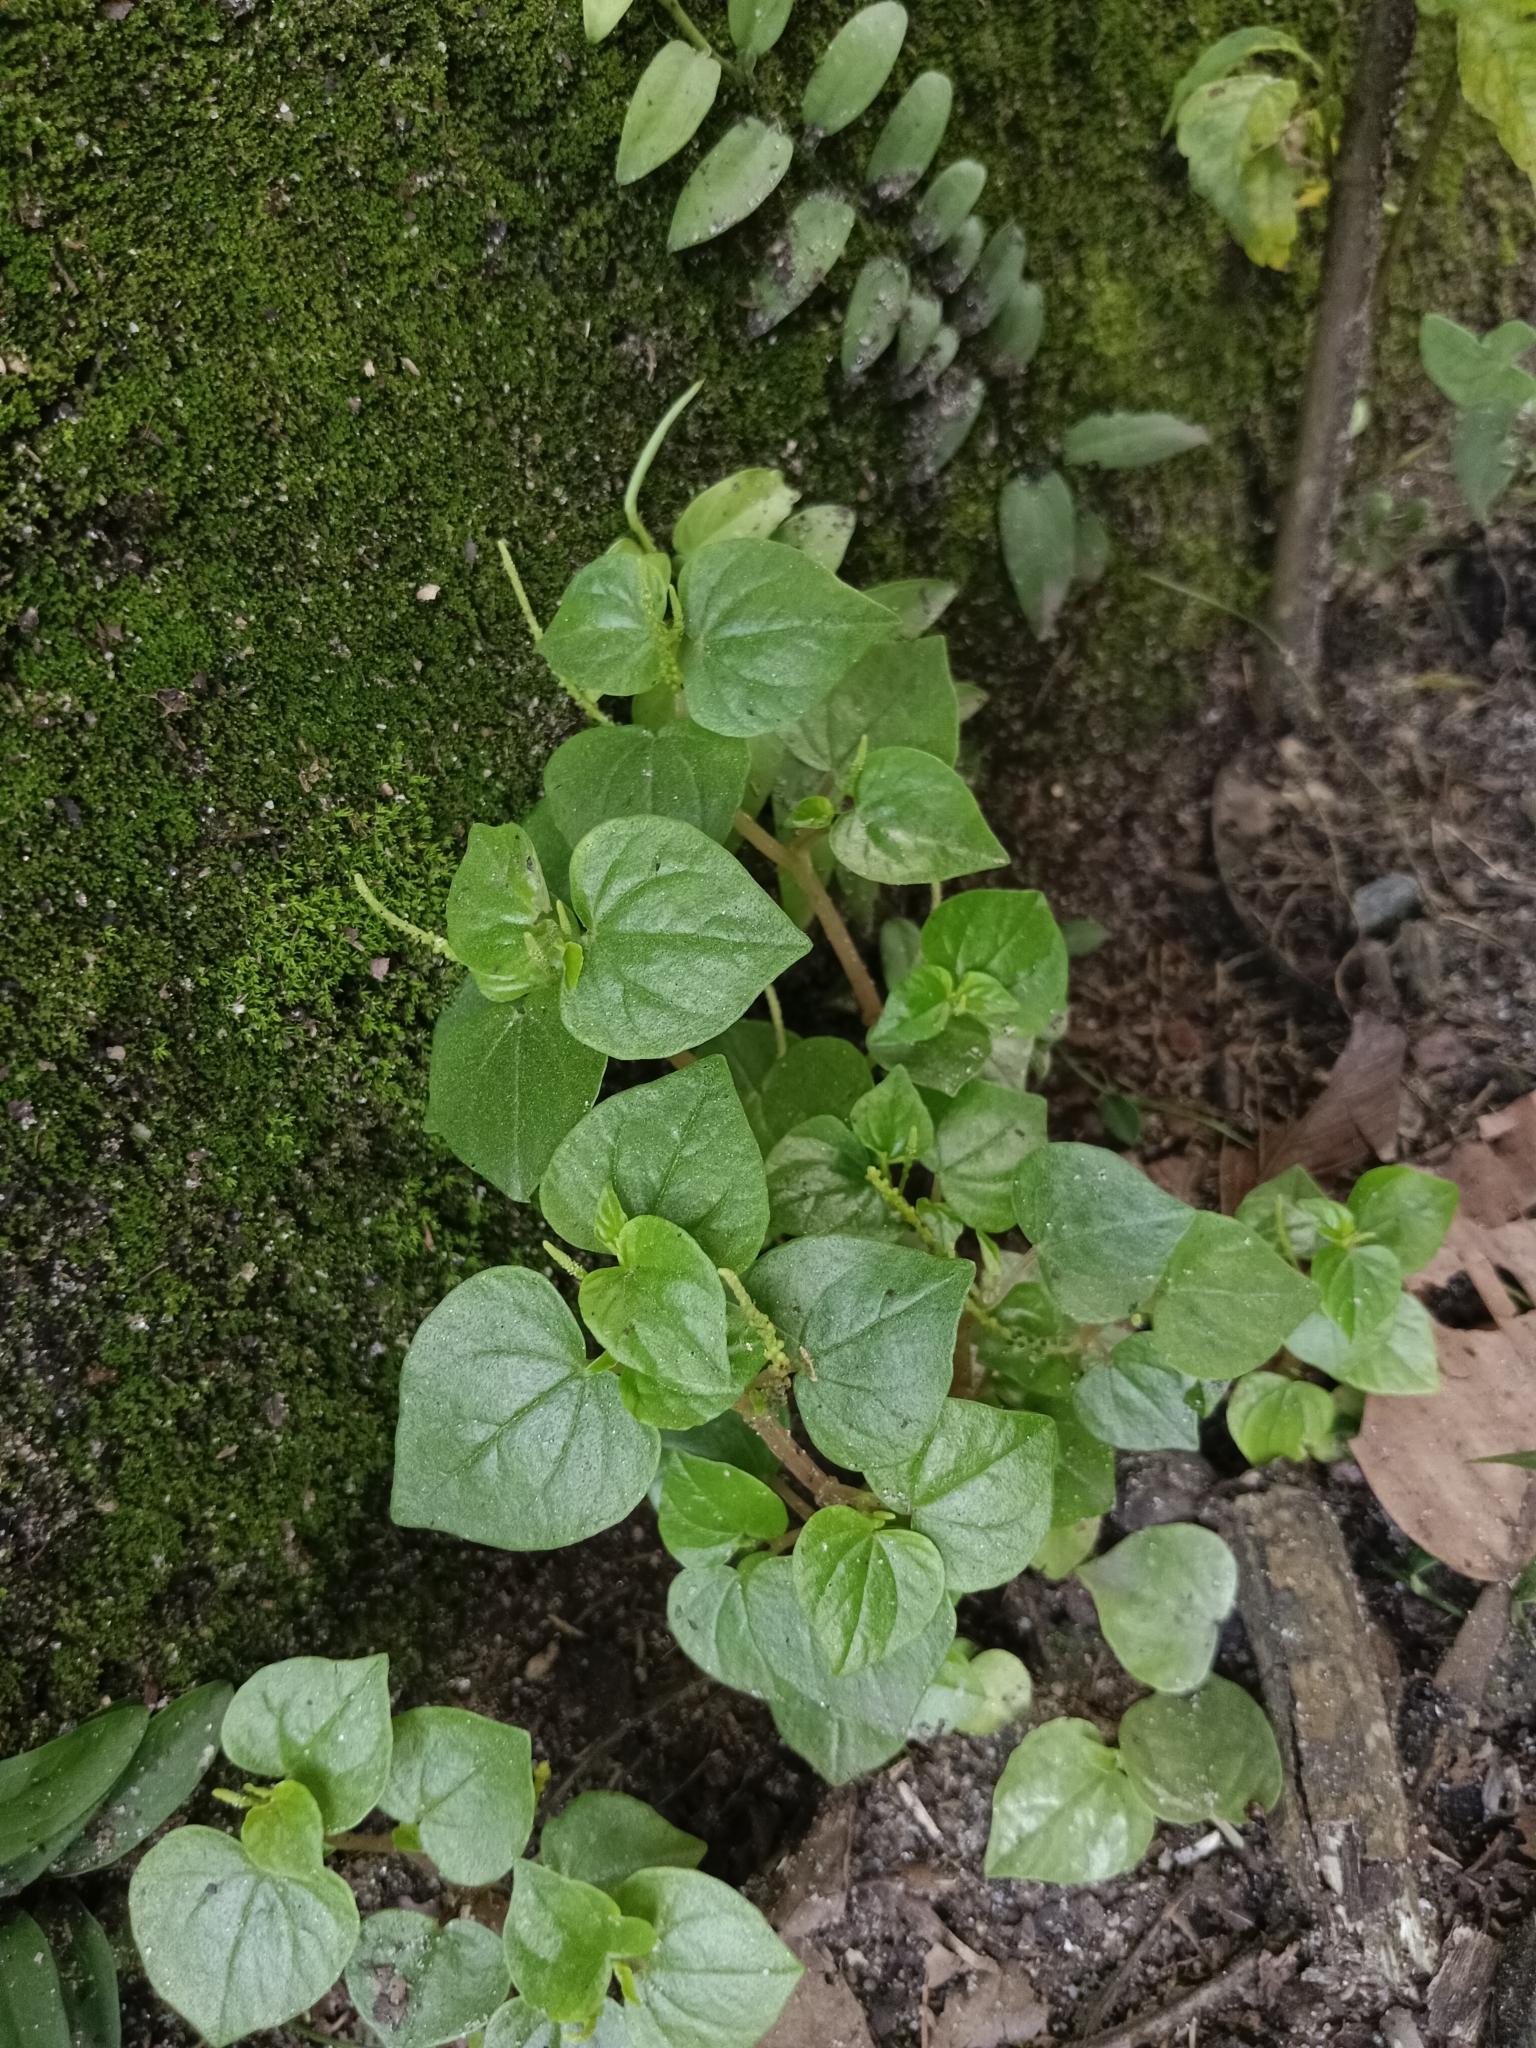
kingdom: Plantae
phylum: Tracheophyta
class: Magnoliopsida
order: Piperales
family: Piperaceae
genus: Peperomia
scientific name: Peperomia pellucida
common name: Man to man
